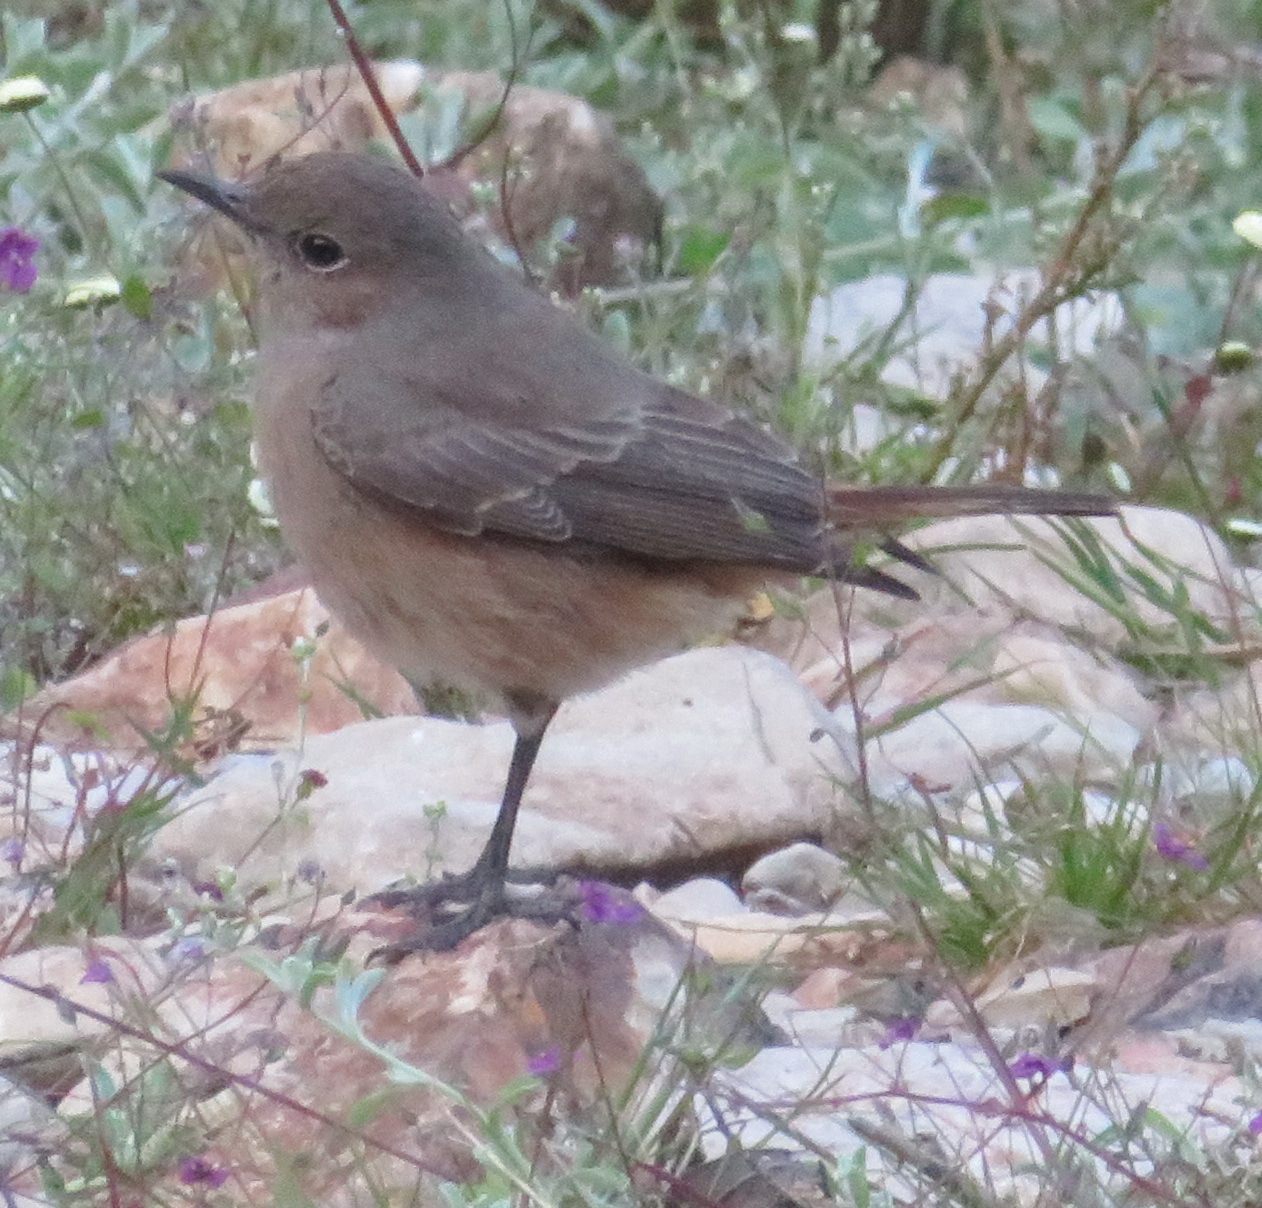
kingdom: Animalia
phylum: Chordata
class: Aves
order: Passeriformes
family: Muscicapidae
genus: Oenanthe
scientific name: Oenanthe familiaris
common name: Familiar chat
